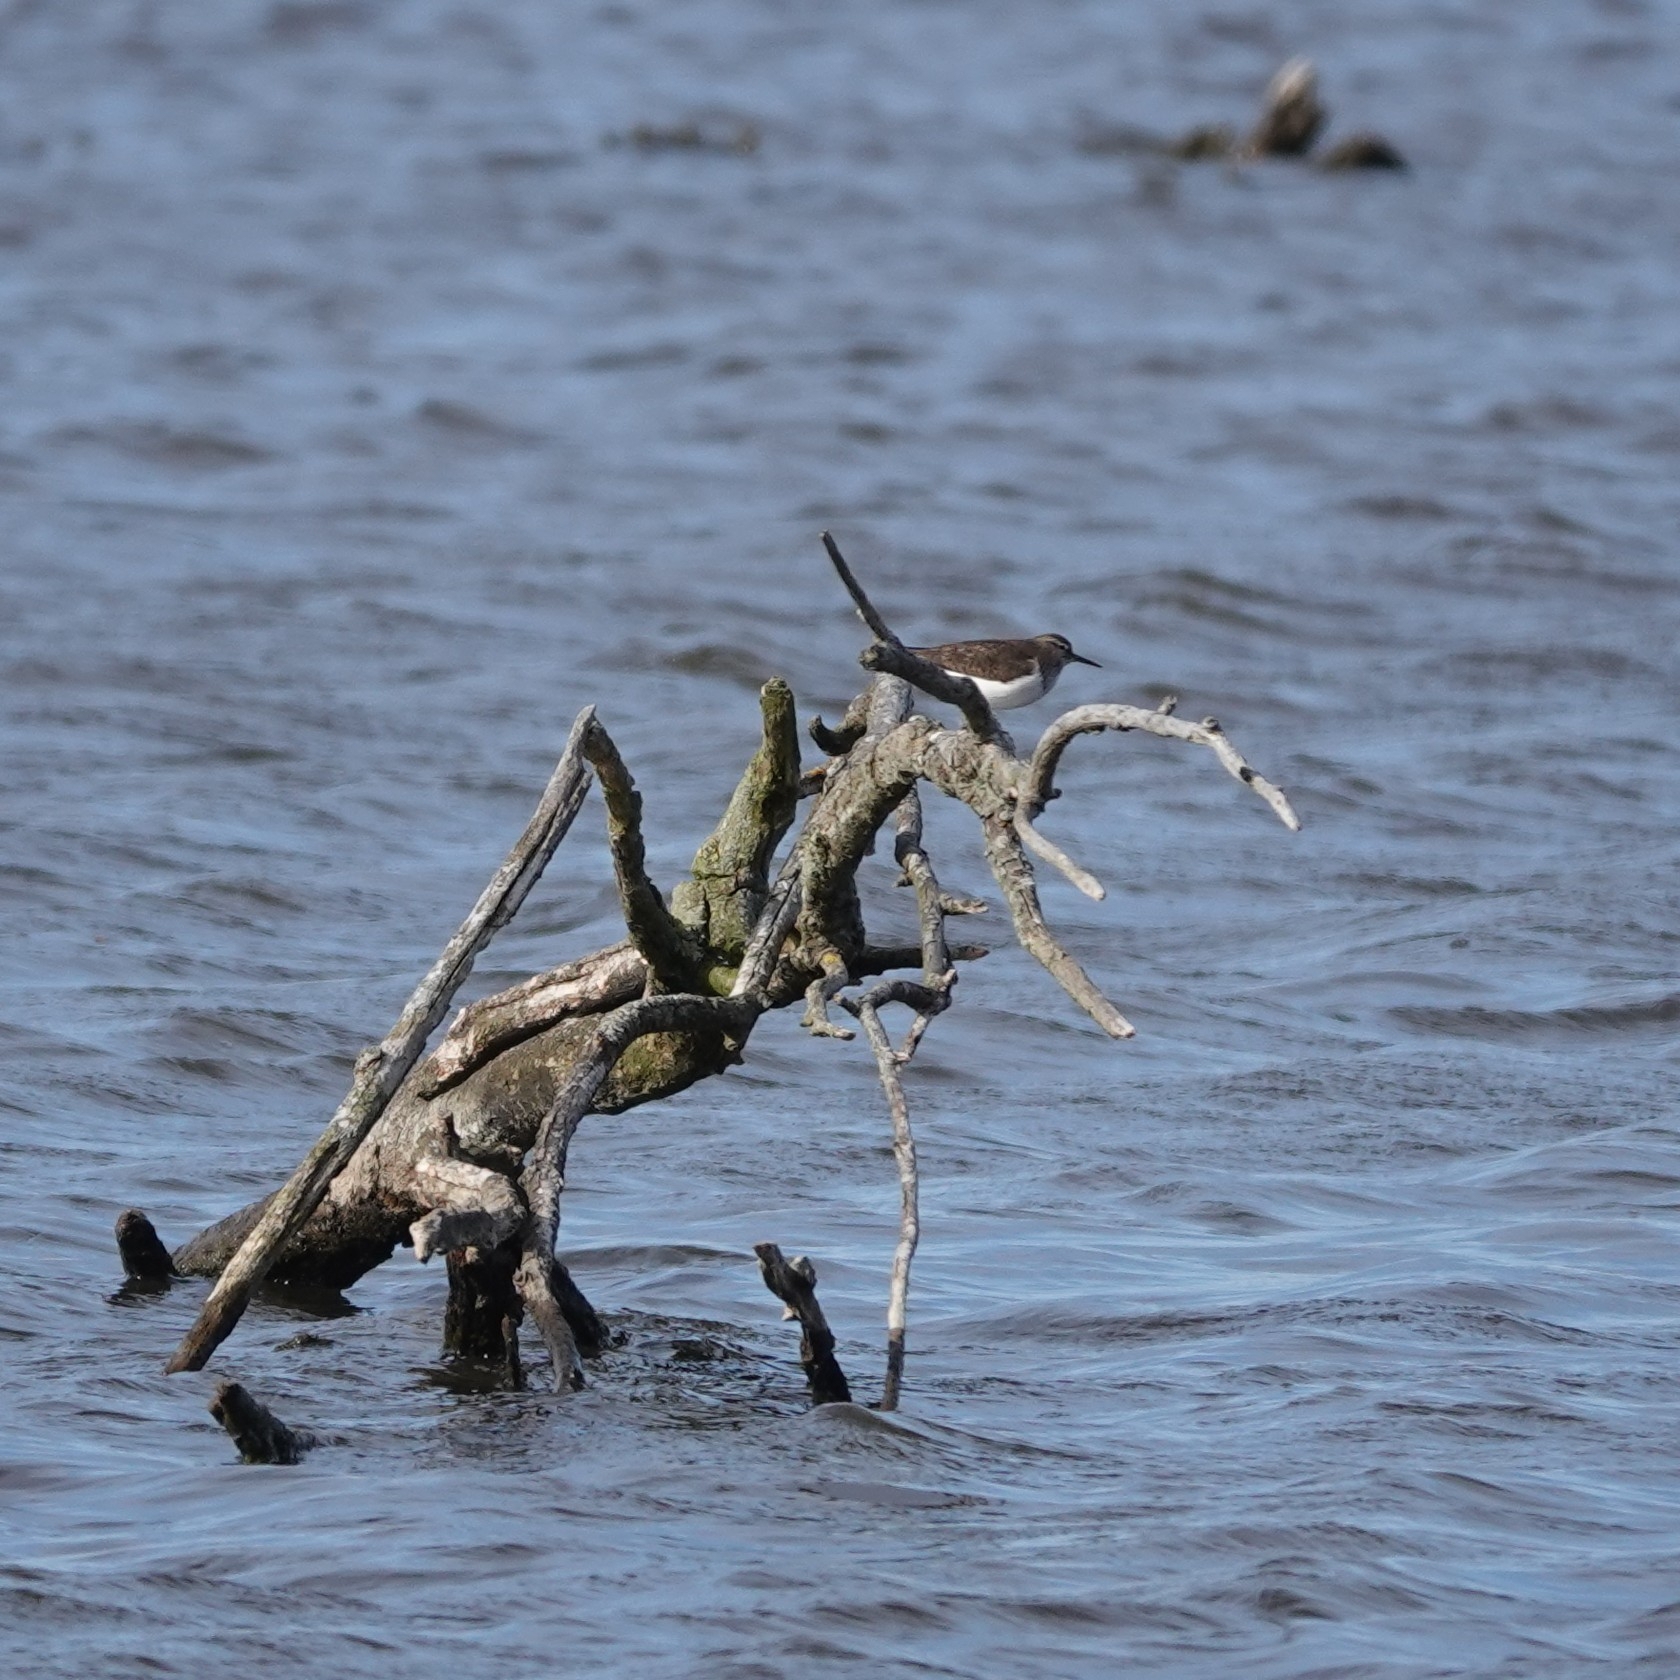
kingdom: Animalia
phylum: Chordata
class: Aves
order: Charadriiformes
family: Scolopacidae
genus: Actitis
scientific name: Actitis hypoleucos
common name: Common sandpiper
